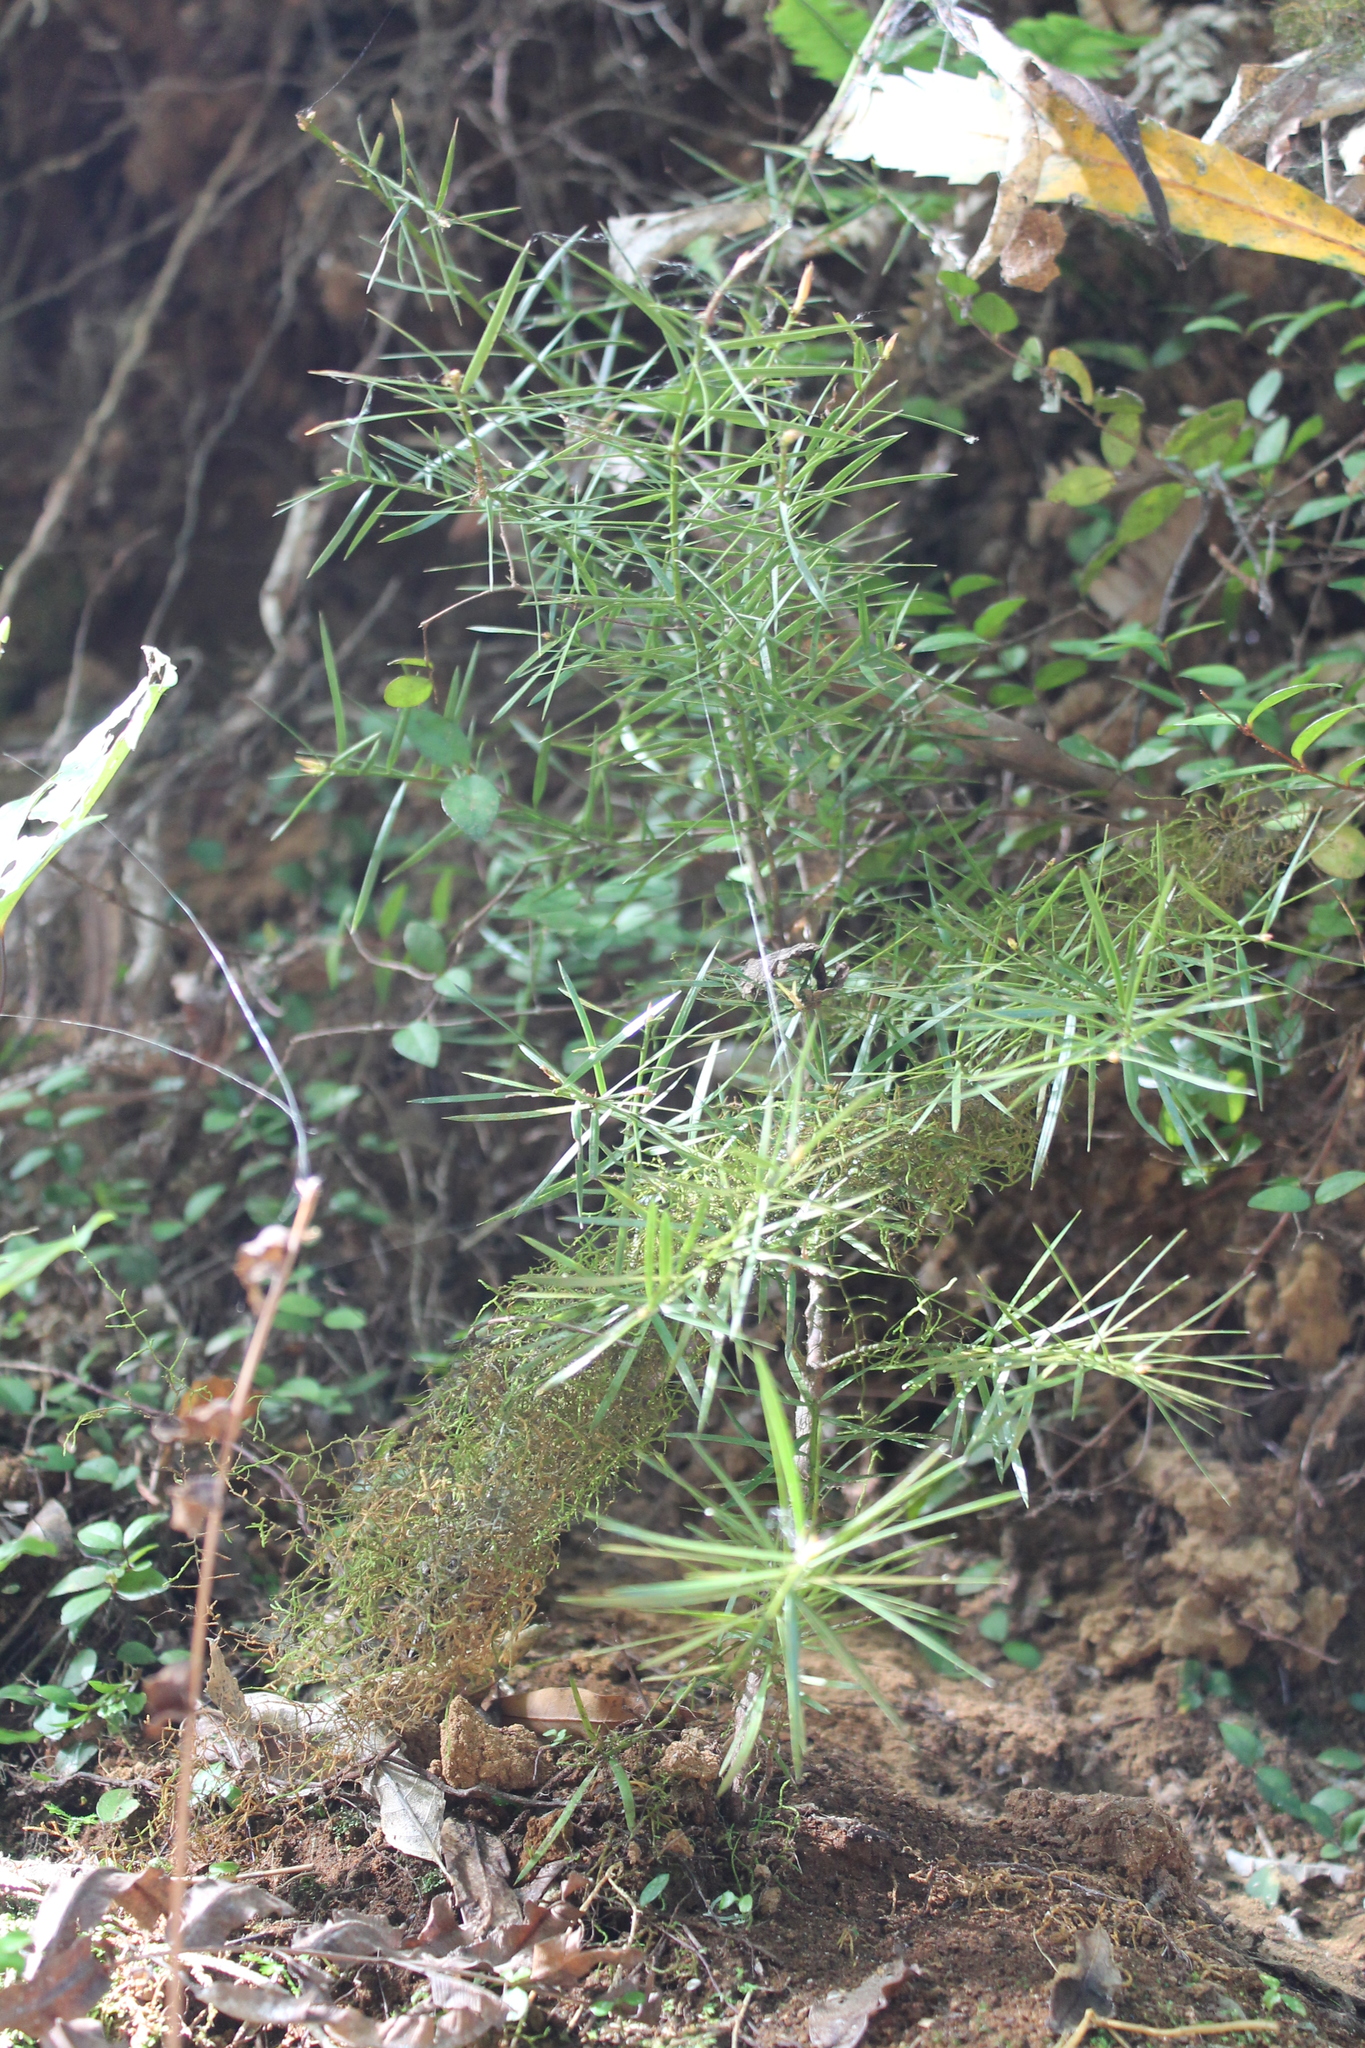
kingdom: Plantae
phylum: Tracheophyta
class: Magnoliopsida
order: Proteales
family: Proteaceae
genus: Hakea
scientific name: Hakea sericea
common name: Needle bush
